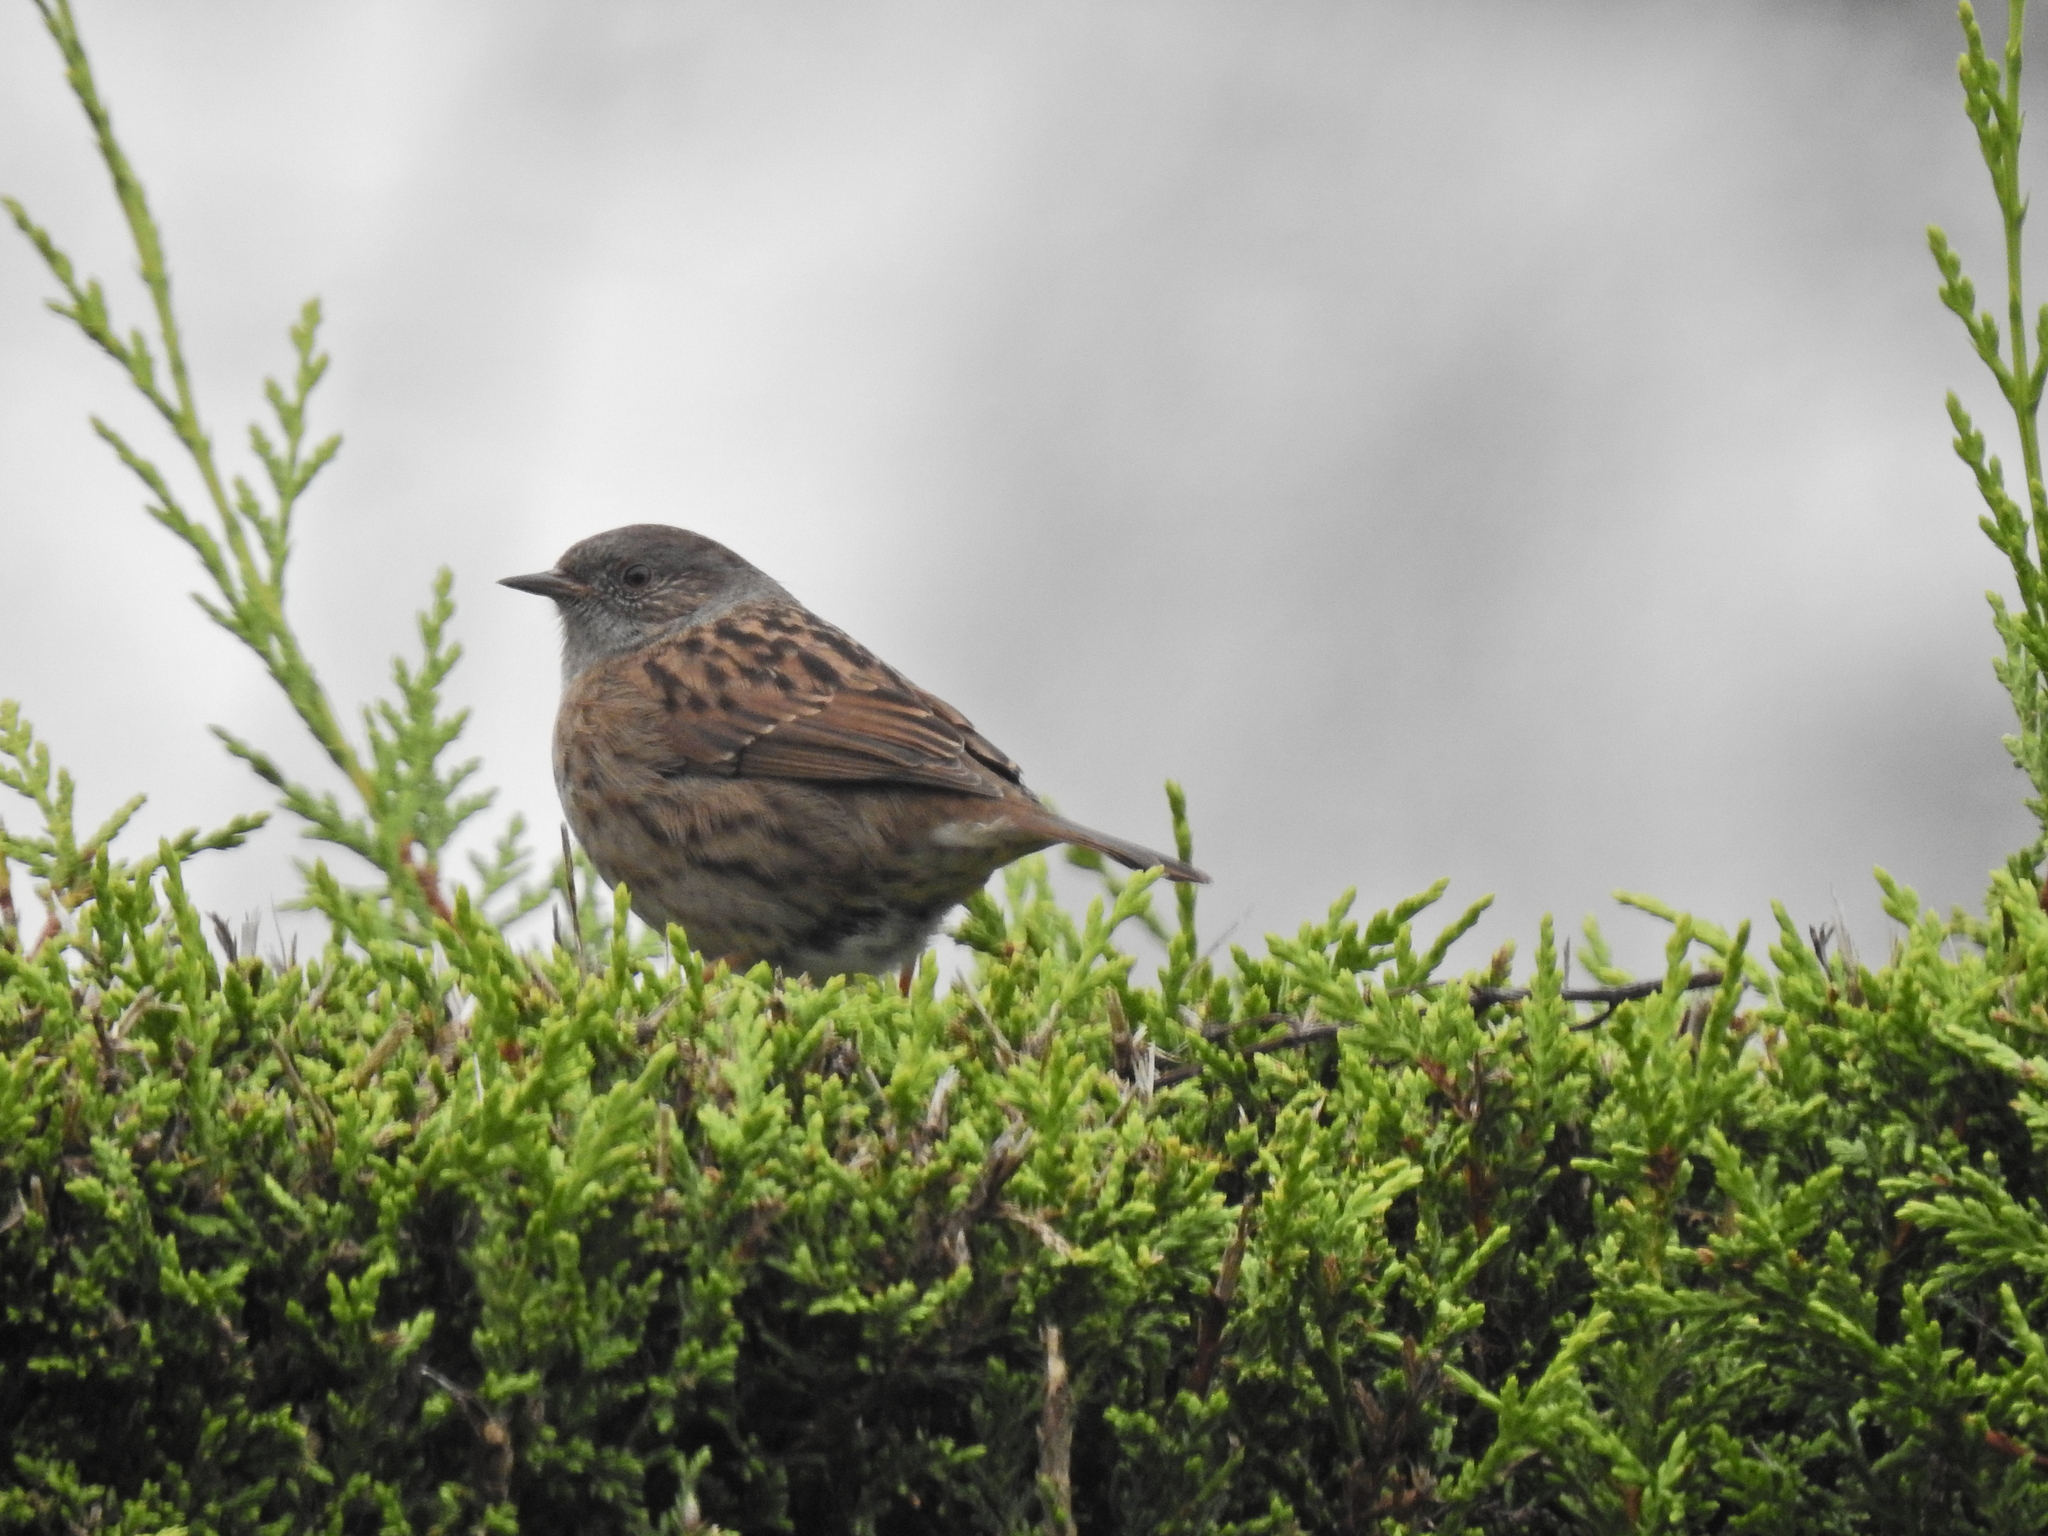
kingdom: Animalia
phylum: Chordata
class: Aves
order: Passeriformes
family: Prunellidae
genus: Prunella
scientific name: Prunella modularis
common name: Dunnock
